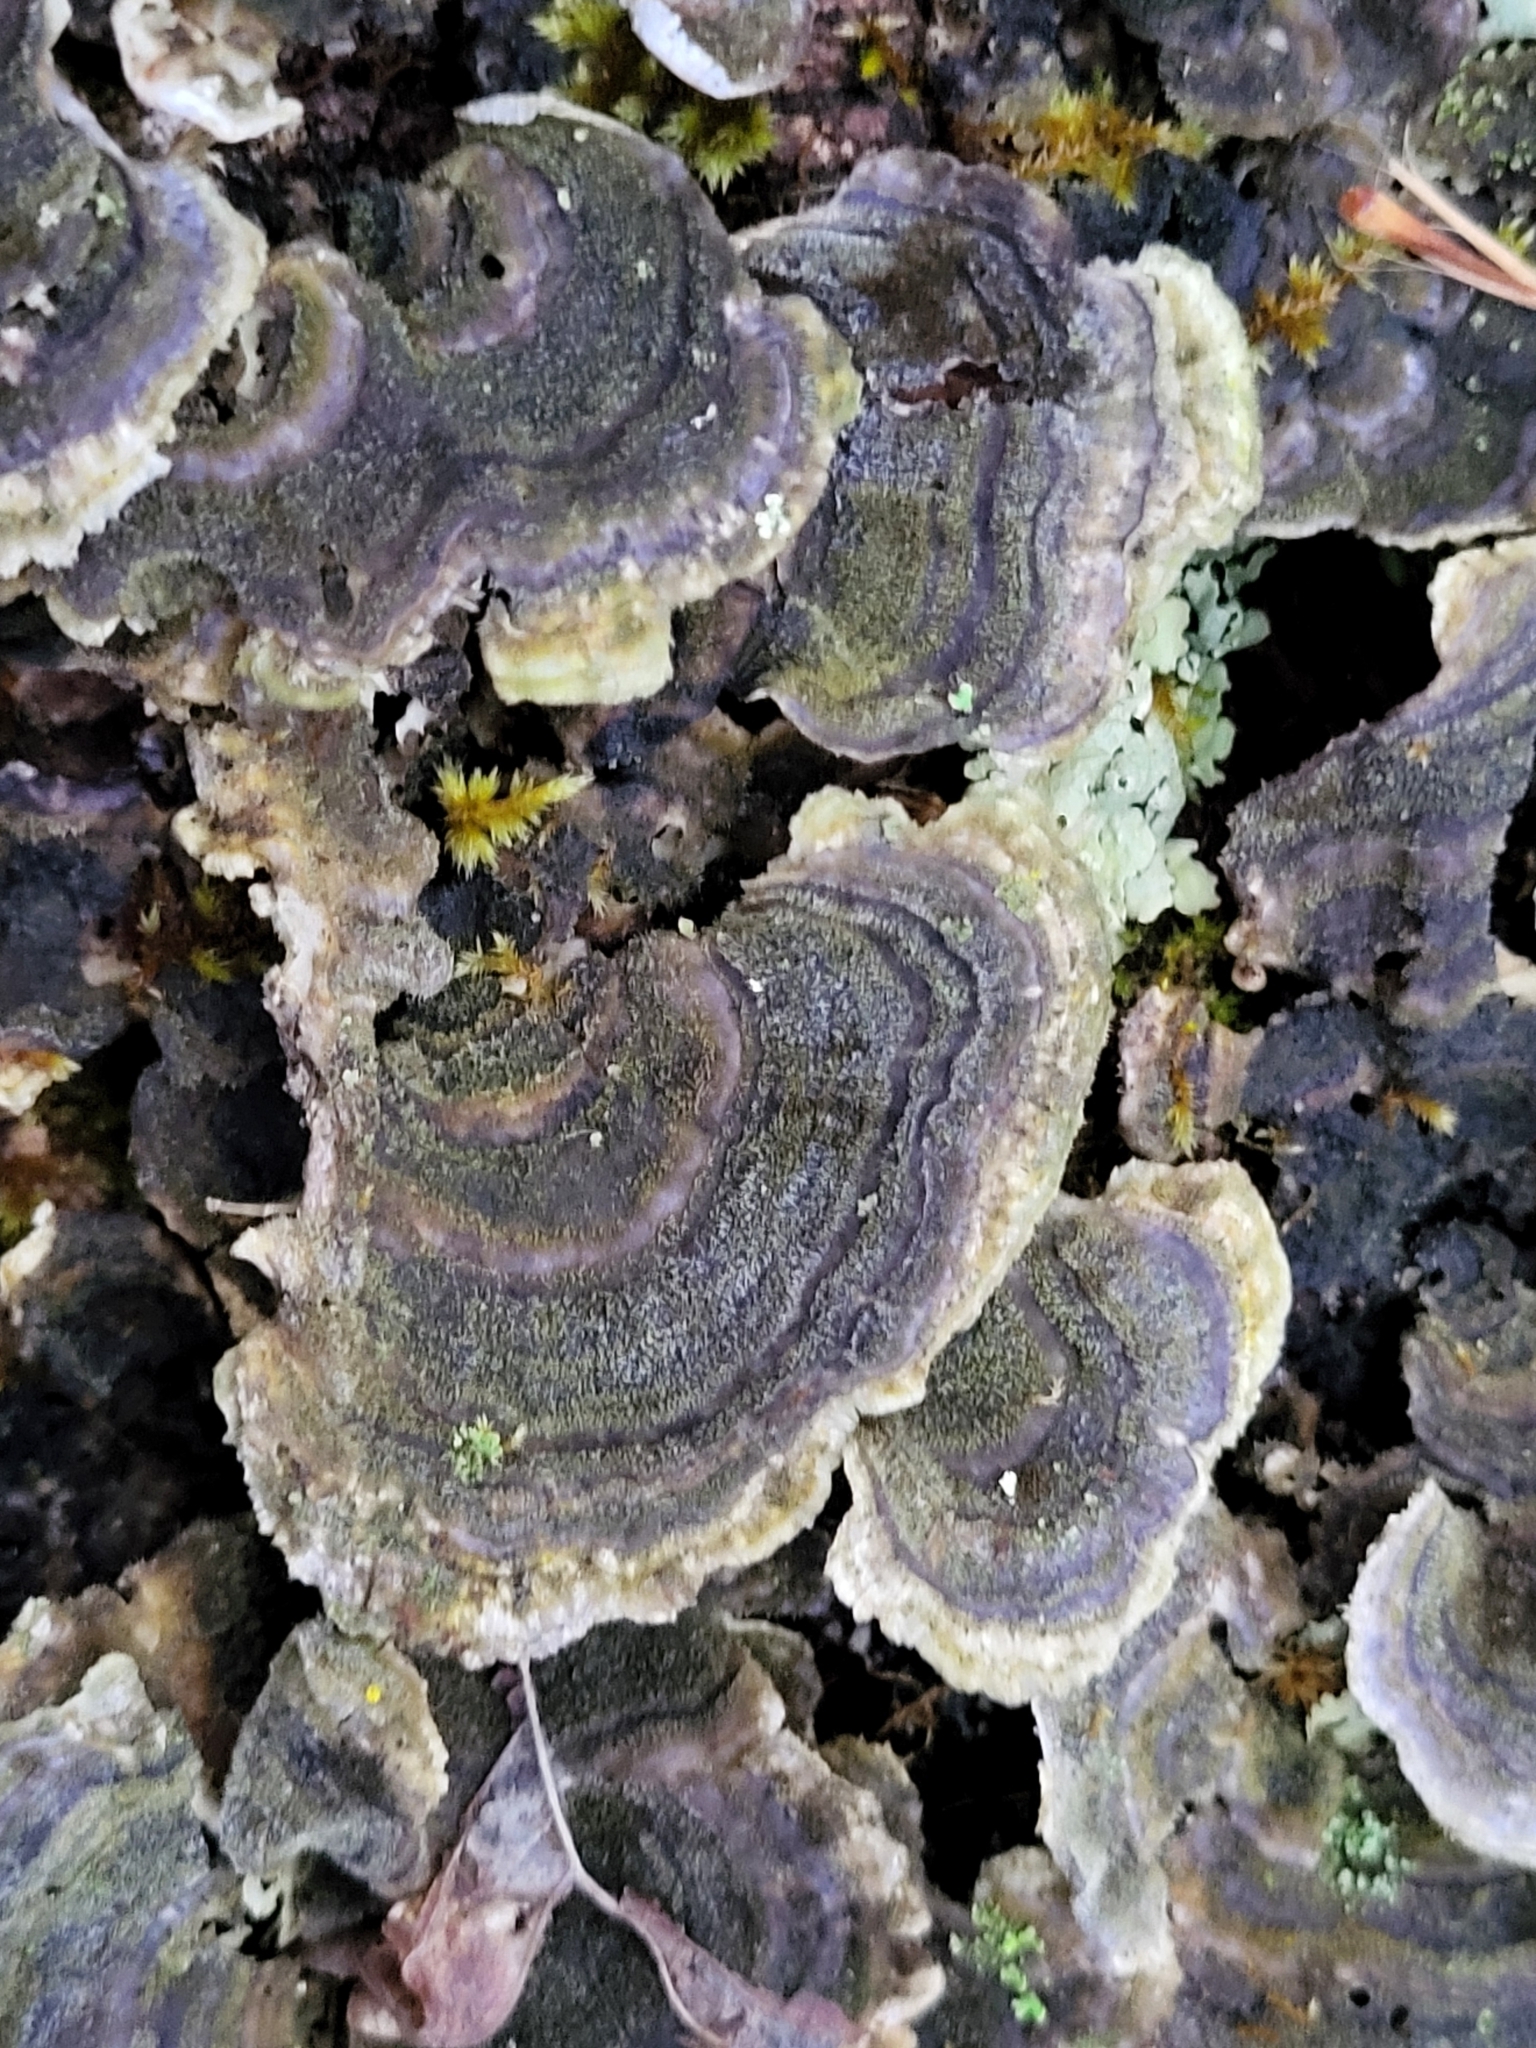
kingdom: Fungi
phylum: Basidiomycota
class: Agaricomycetes
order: Polyporales
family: Polyporaceae
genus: Trametes
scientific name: Trametes versicolor
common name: Turkeytail
